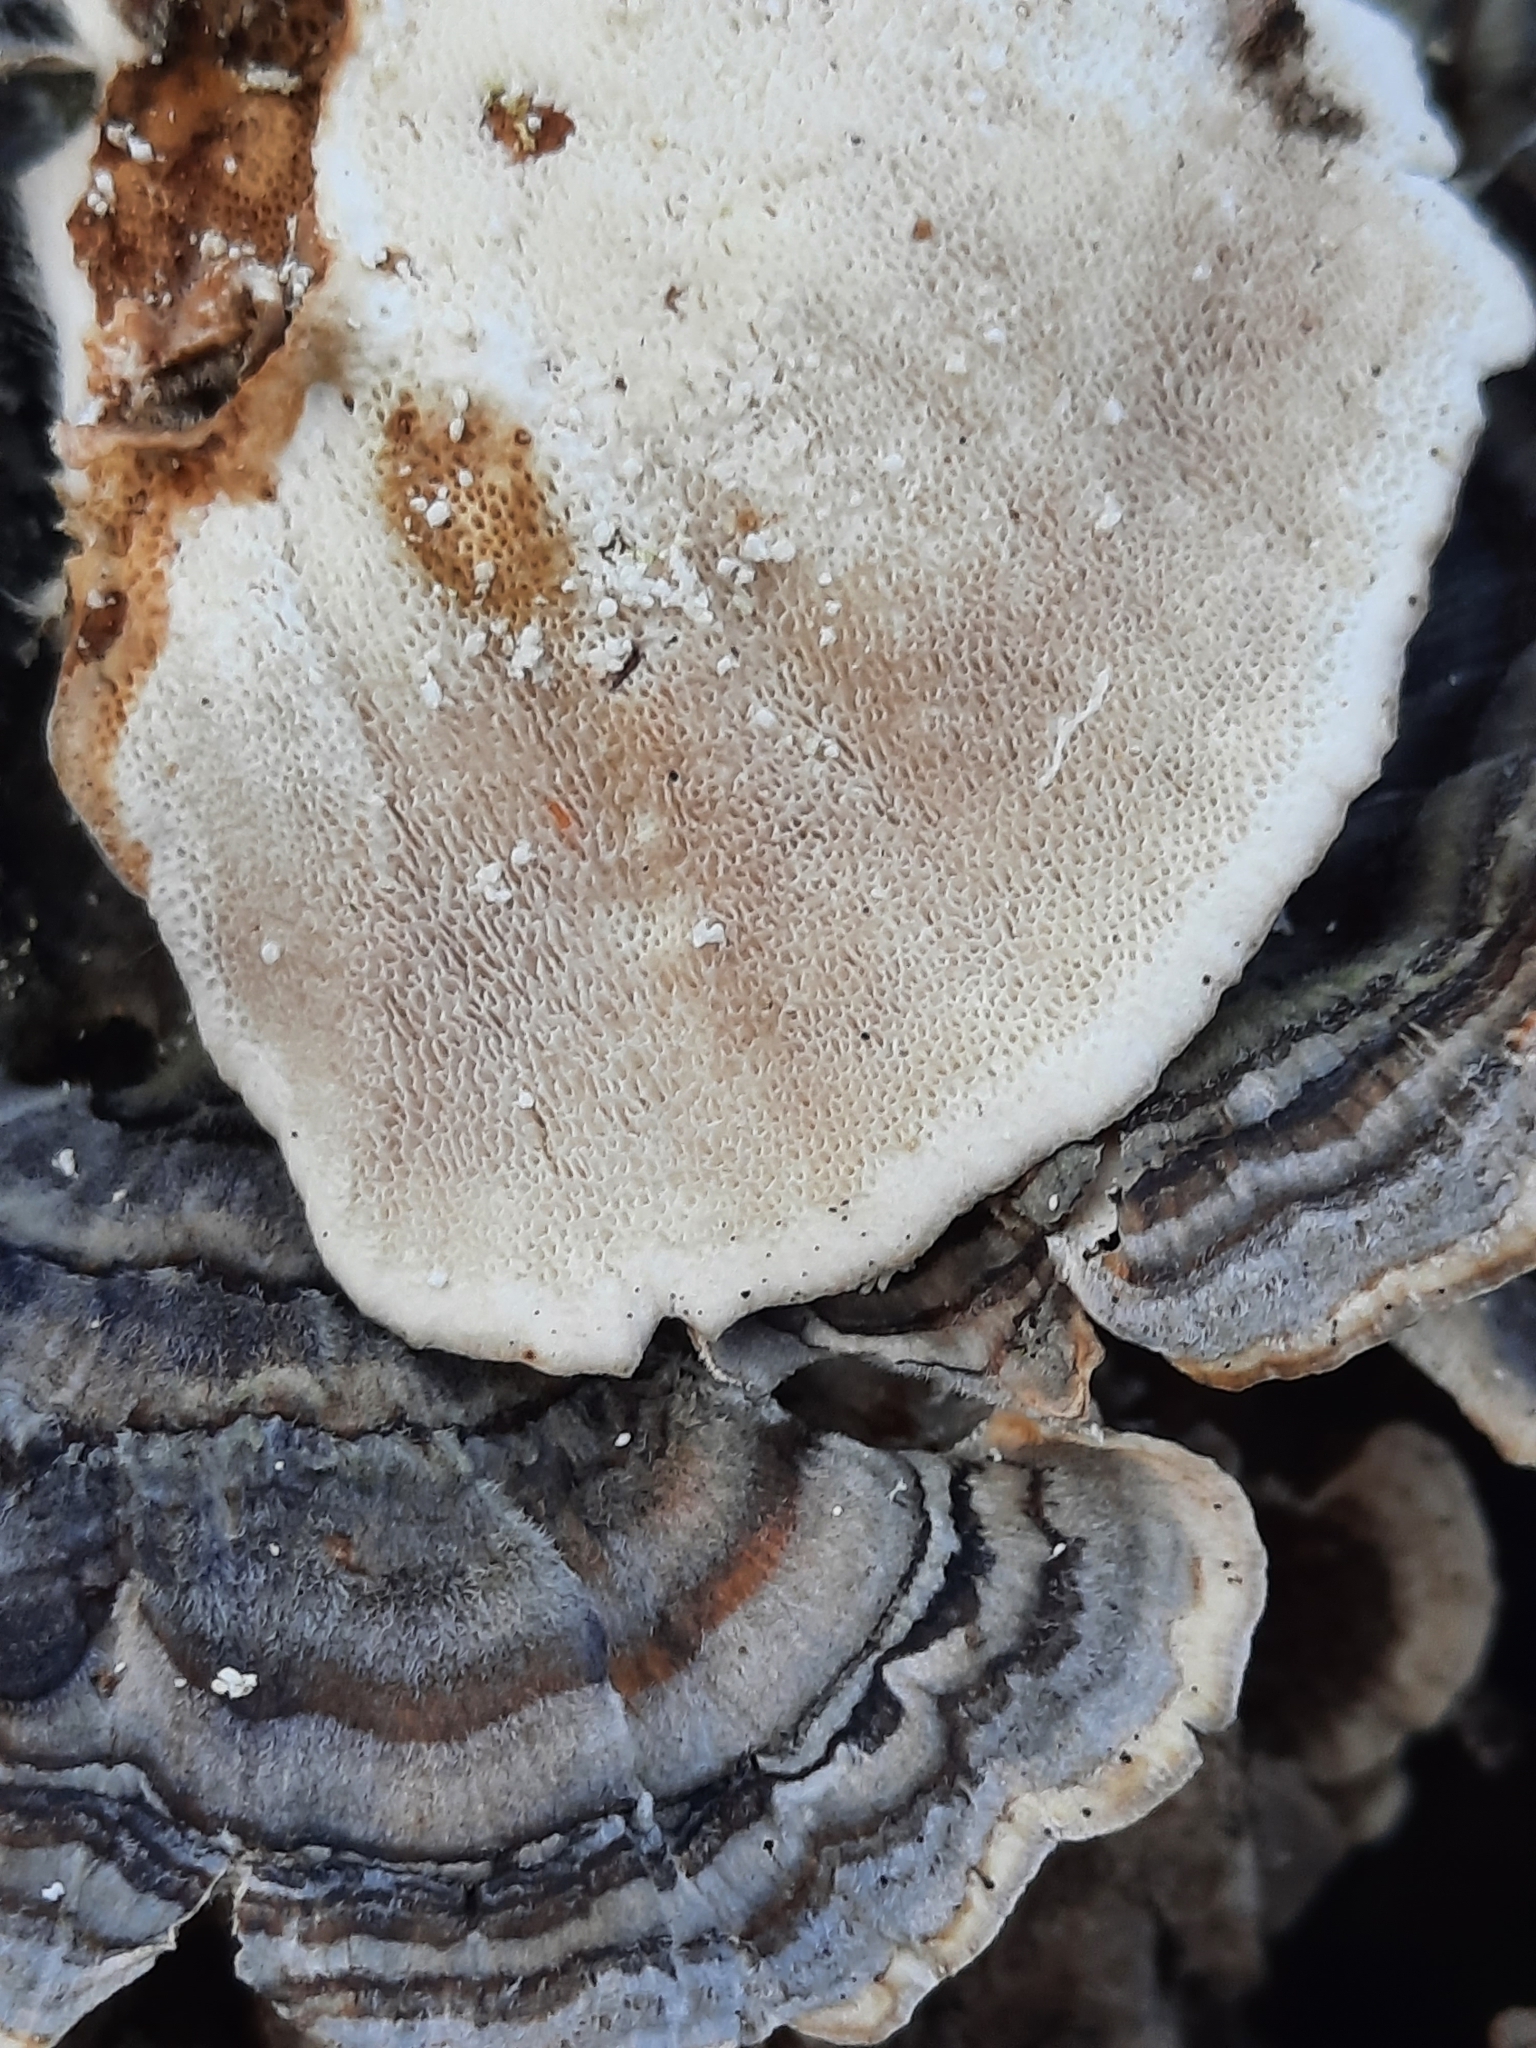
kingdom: Fungi
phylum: Basidiomycota
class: Agaricomycetes
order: Polyporales
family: Polyporaceae
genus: Trametes
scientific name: Trametes versicolor
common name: Turkeytail
